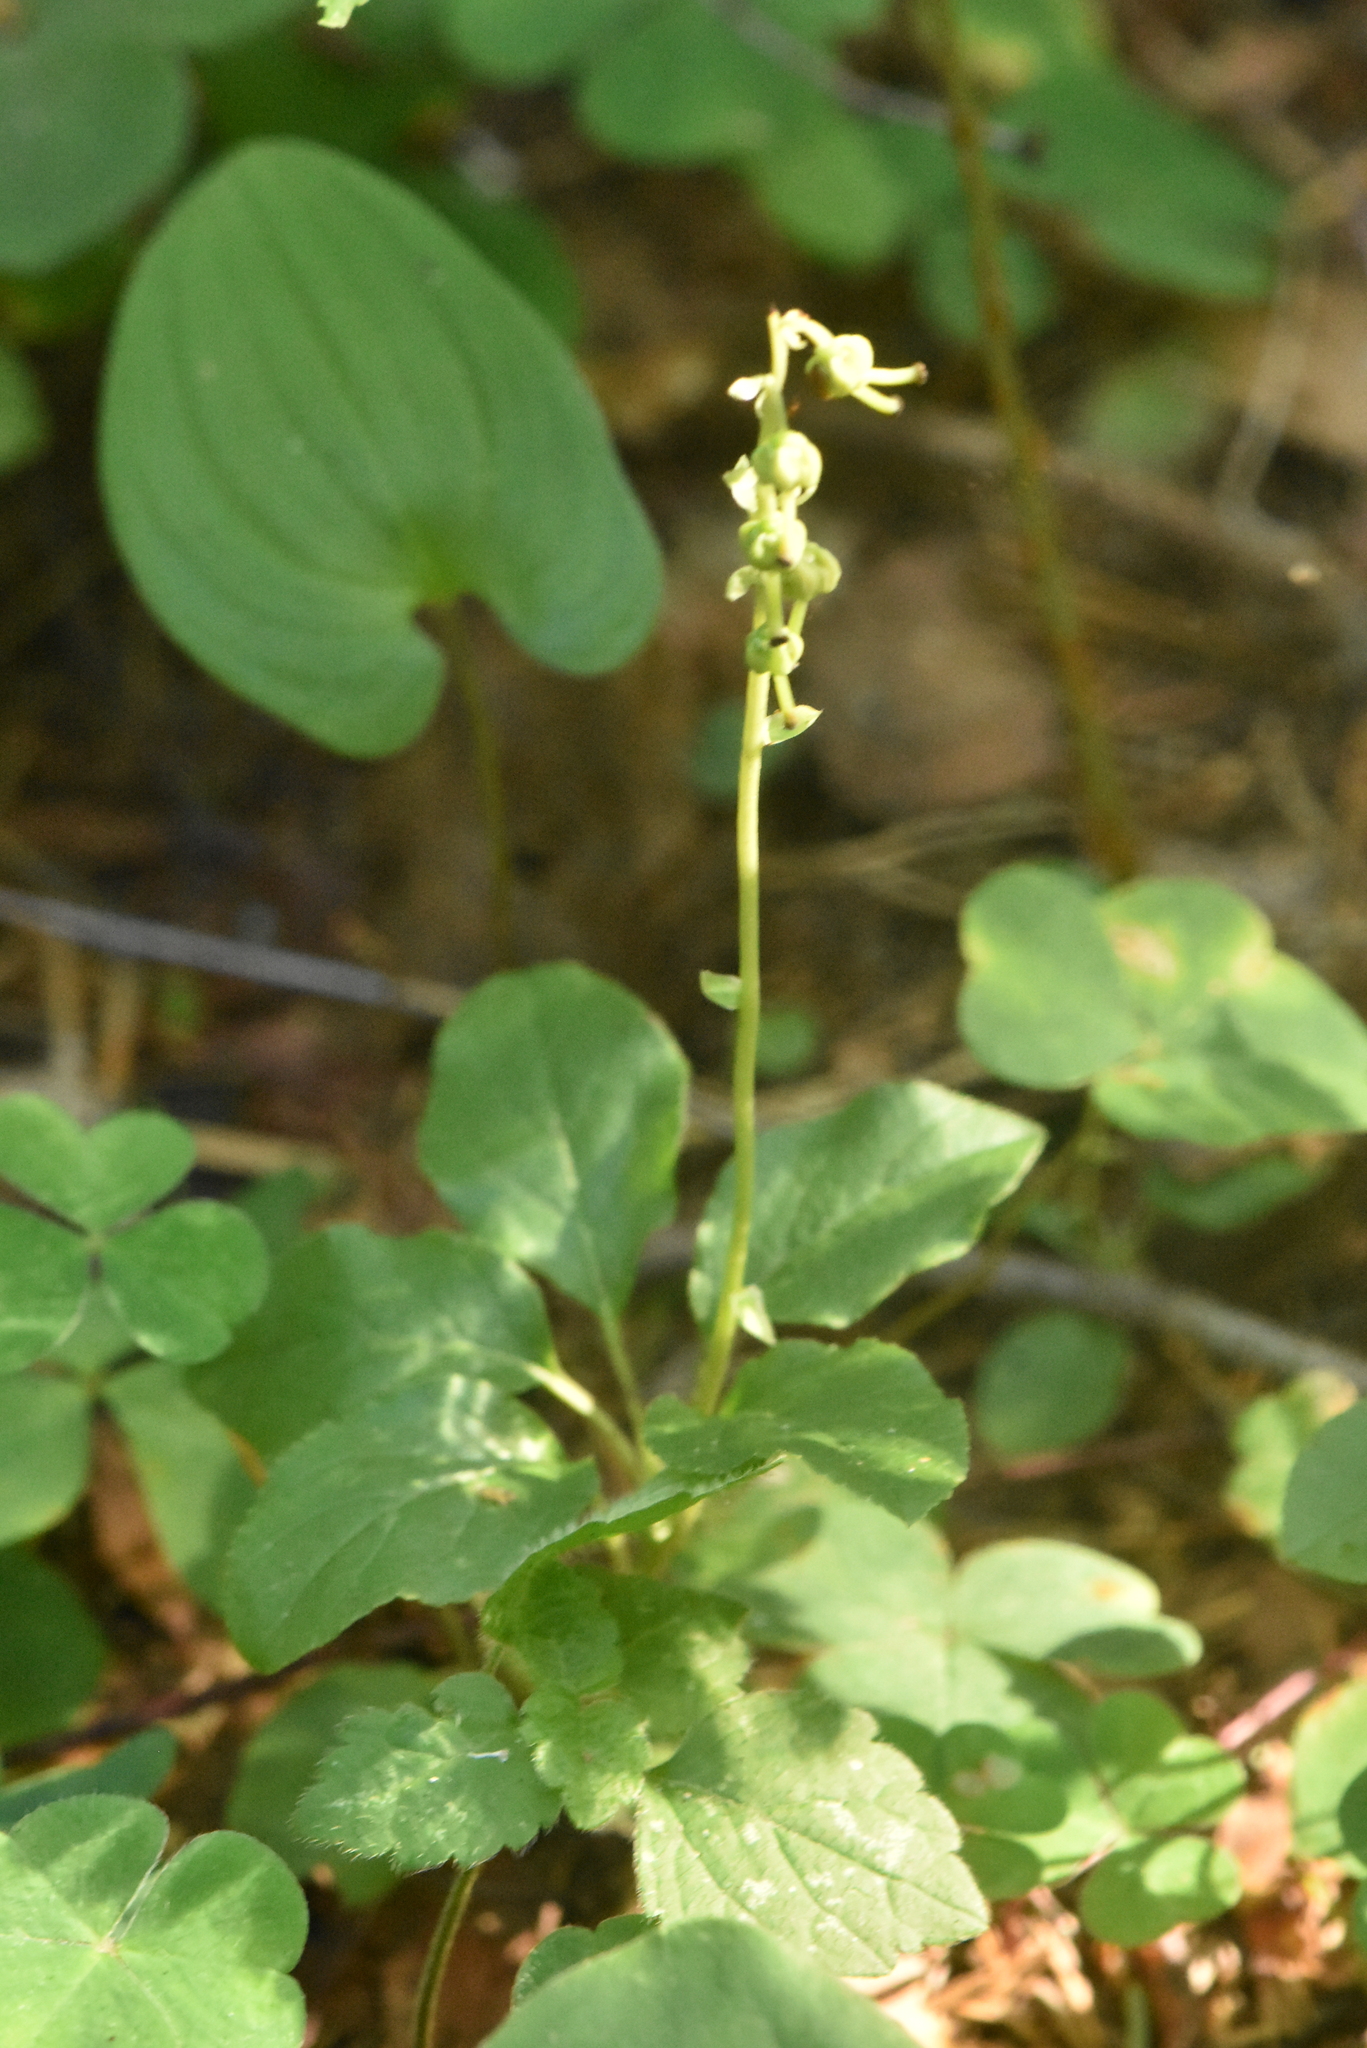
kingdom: Plantae
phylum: Tracheophyta
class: Magnoliopsida
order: Ericales
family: Ericaceae
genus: Orthilia
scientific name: Orthilia secunda
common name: One-sided orthilia
